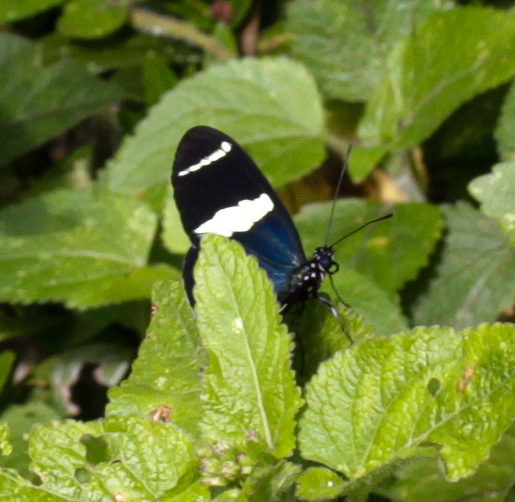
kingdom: Animalia
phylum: Arthropoda
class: Insecta
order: Lepidoptera
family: Nymphalidae
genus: Heliconius
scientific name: Heliconius sara
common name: Sara longwing
